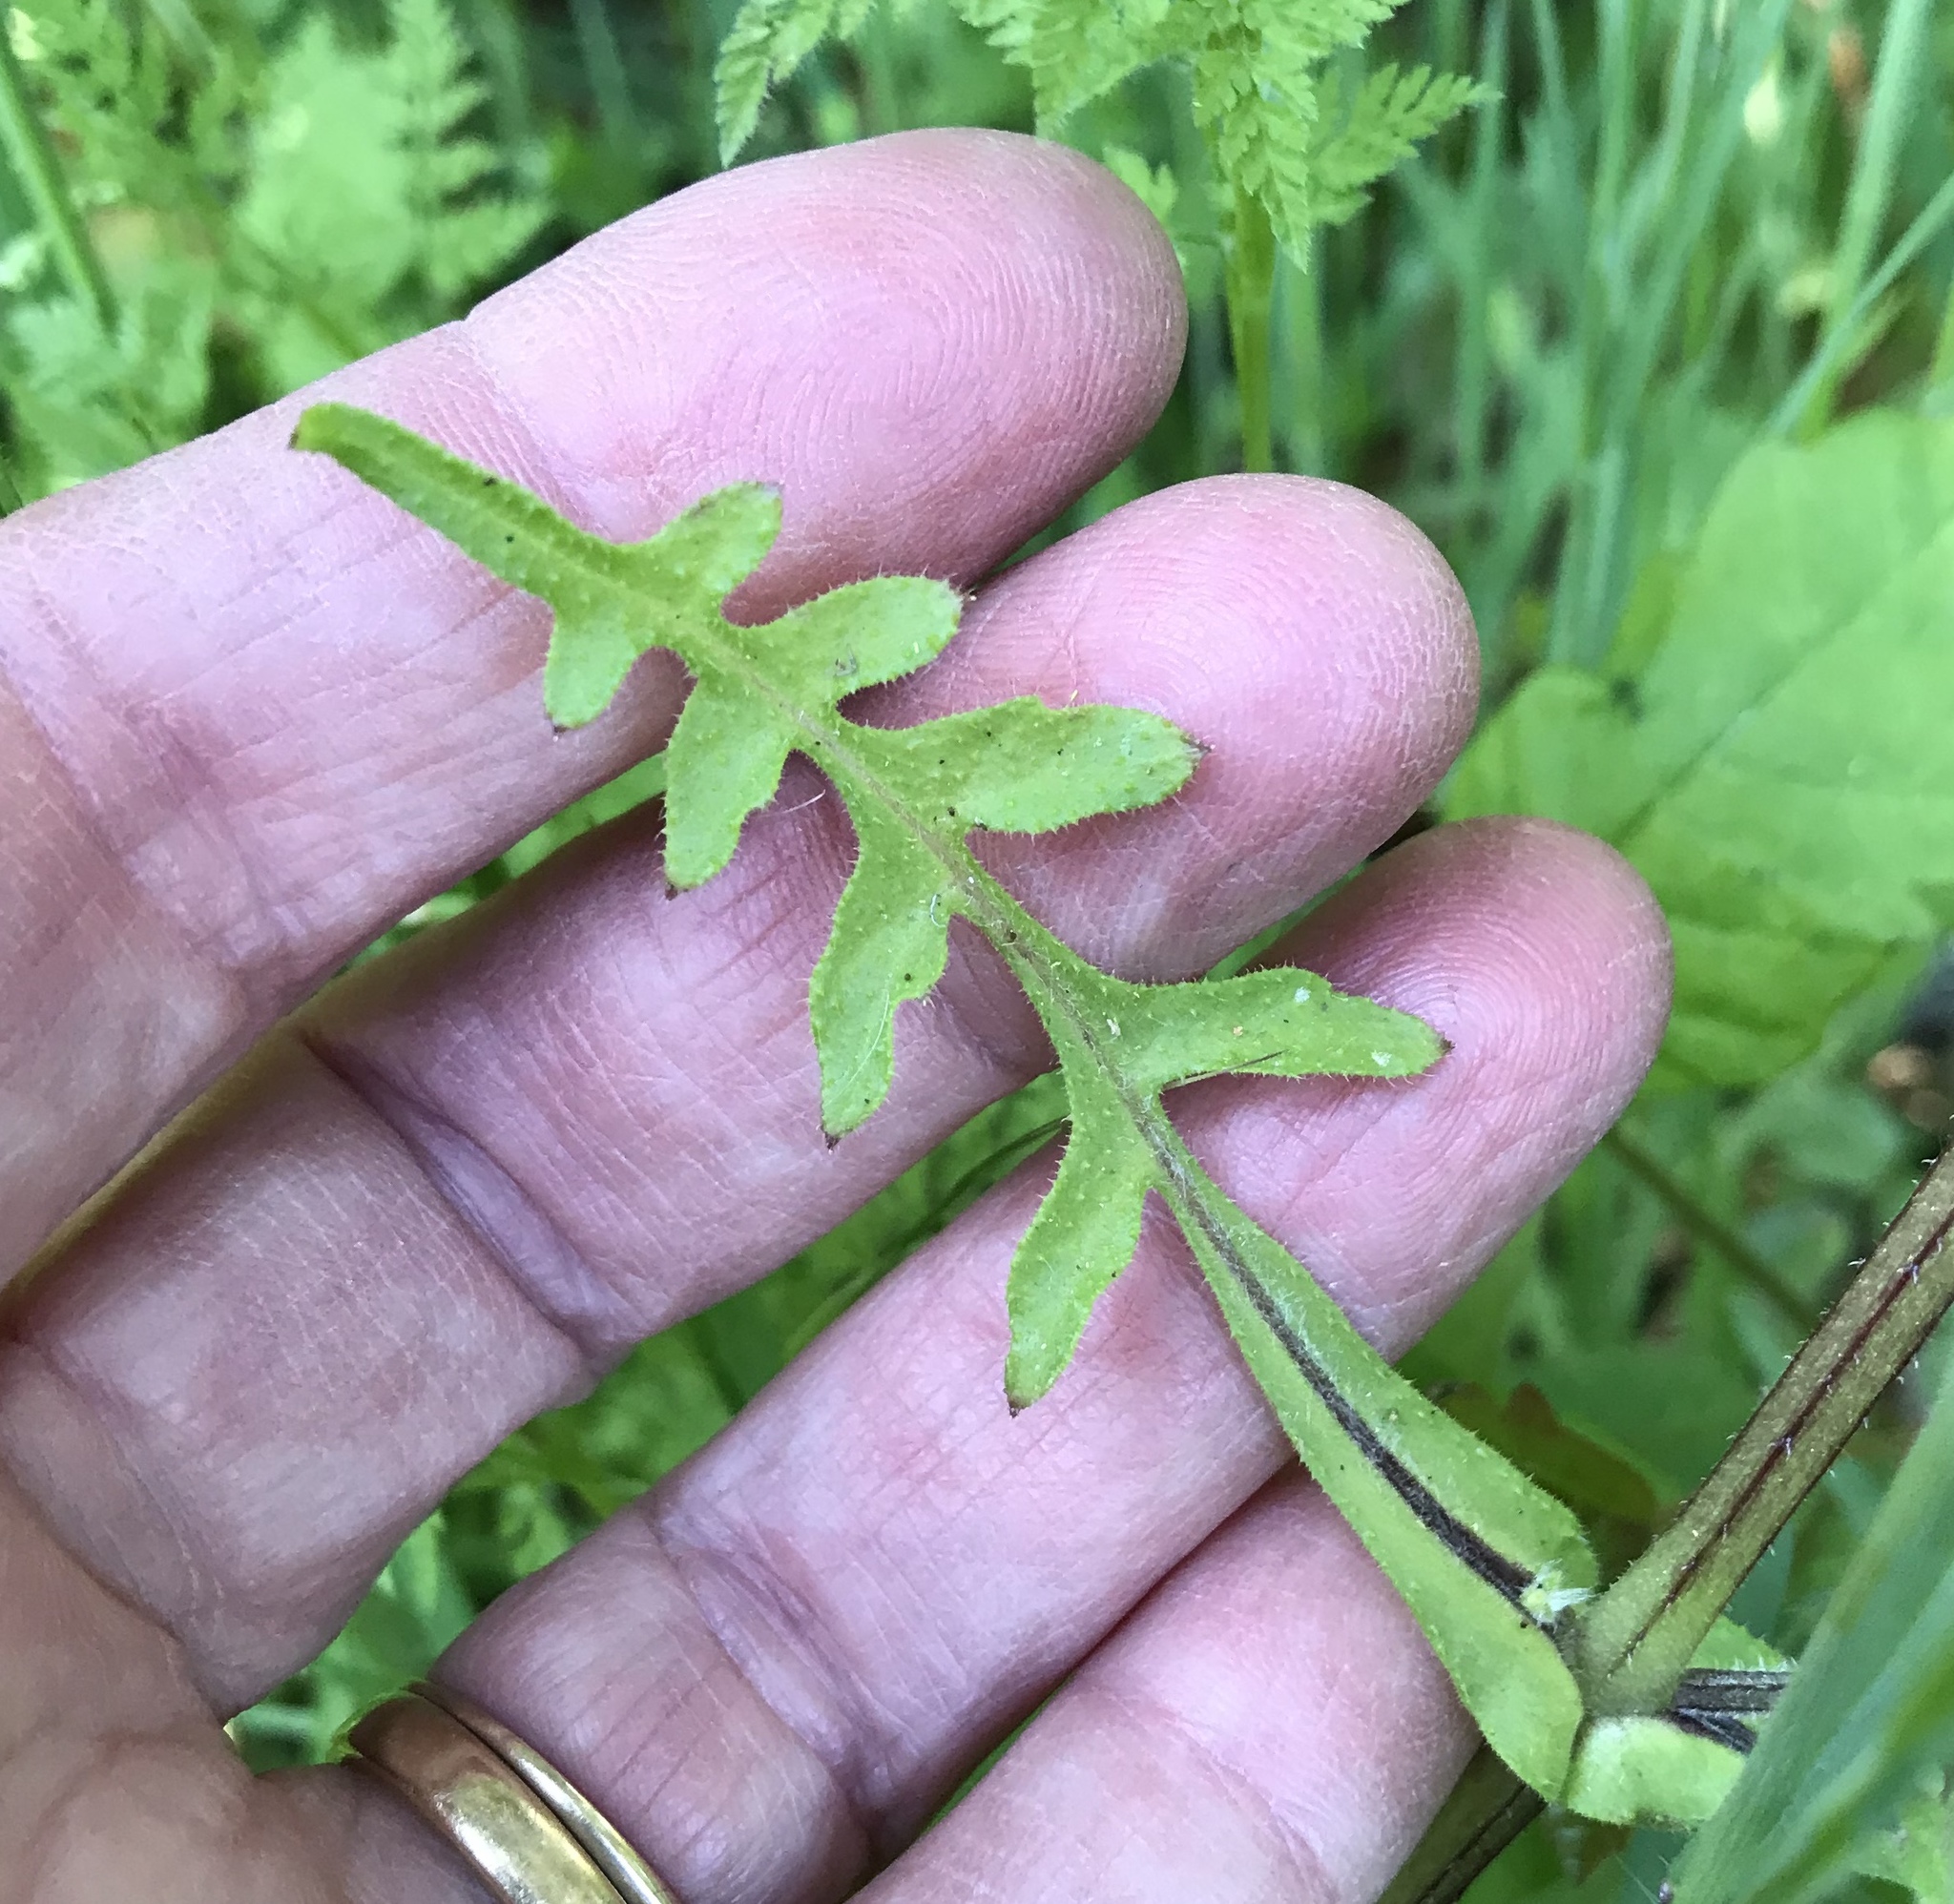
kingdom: Plantae
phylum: Tracheophyta
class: Magnoliopsida
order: Boraginales
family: Hydrophyllaceae
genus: Pholistoma
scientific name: Pholistoma auritum
